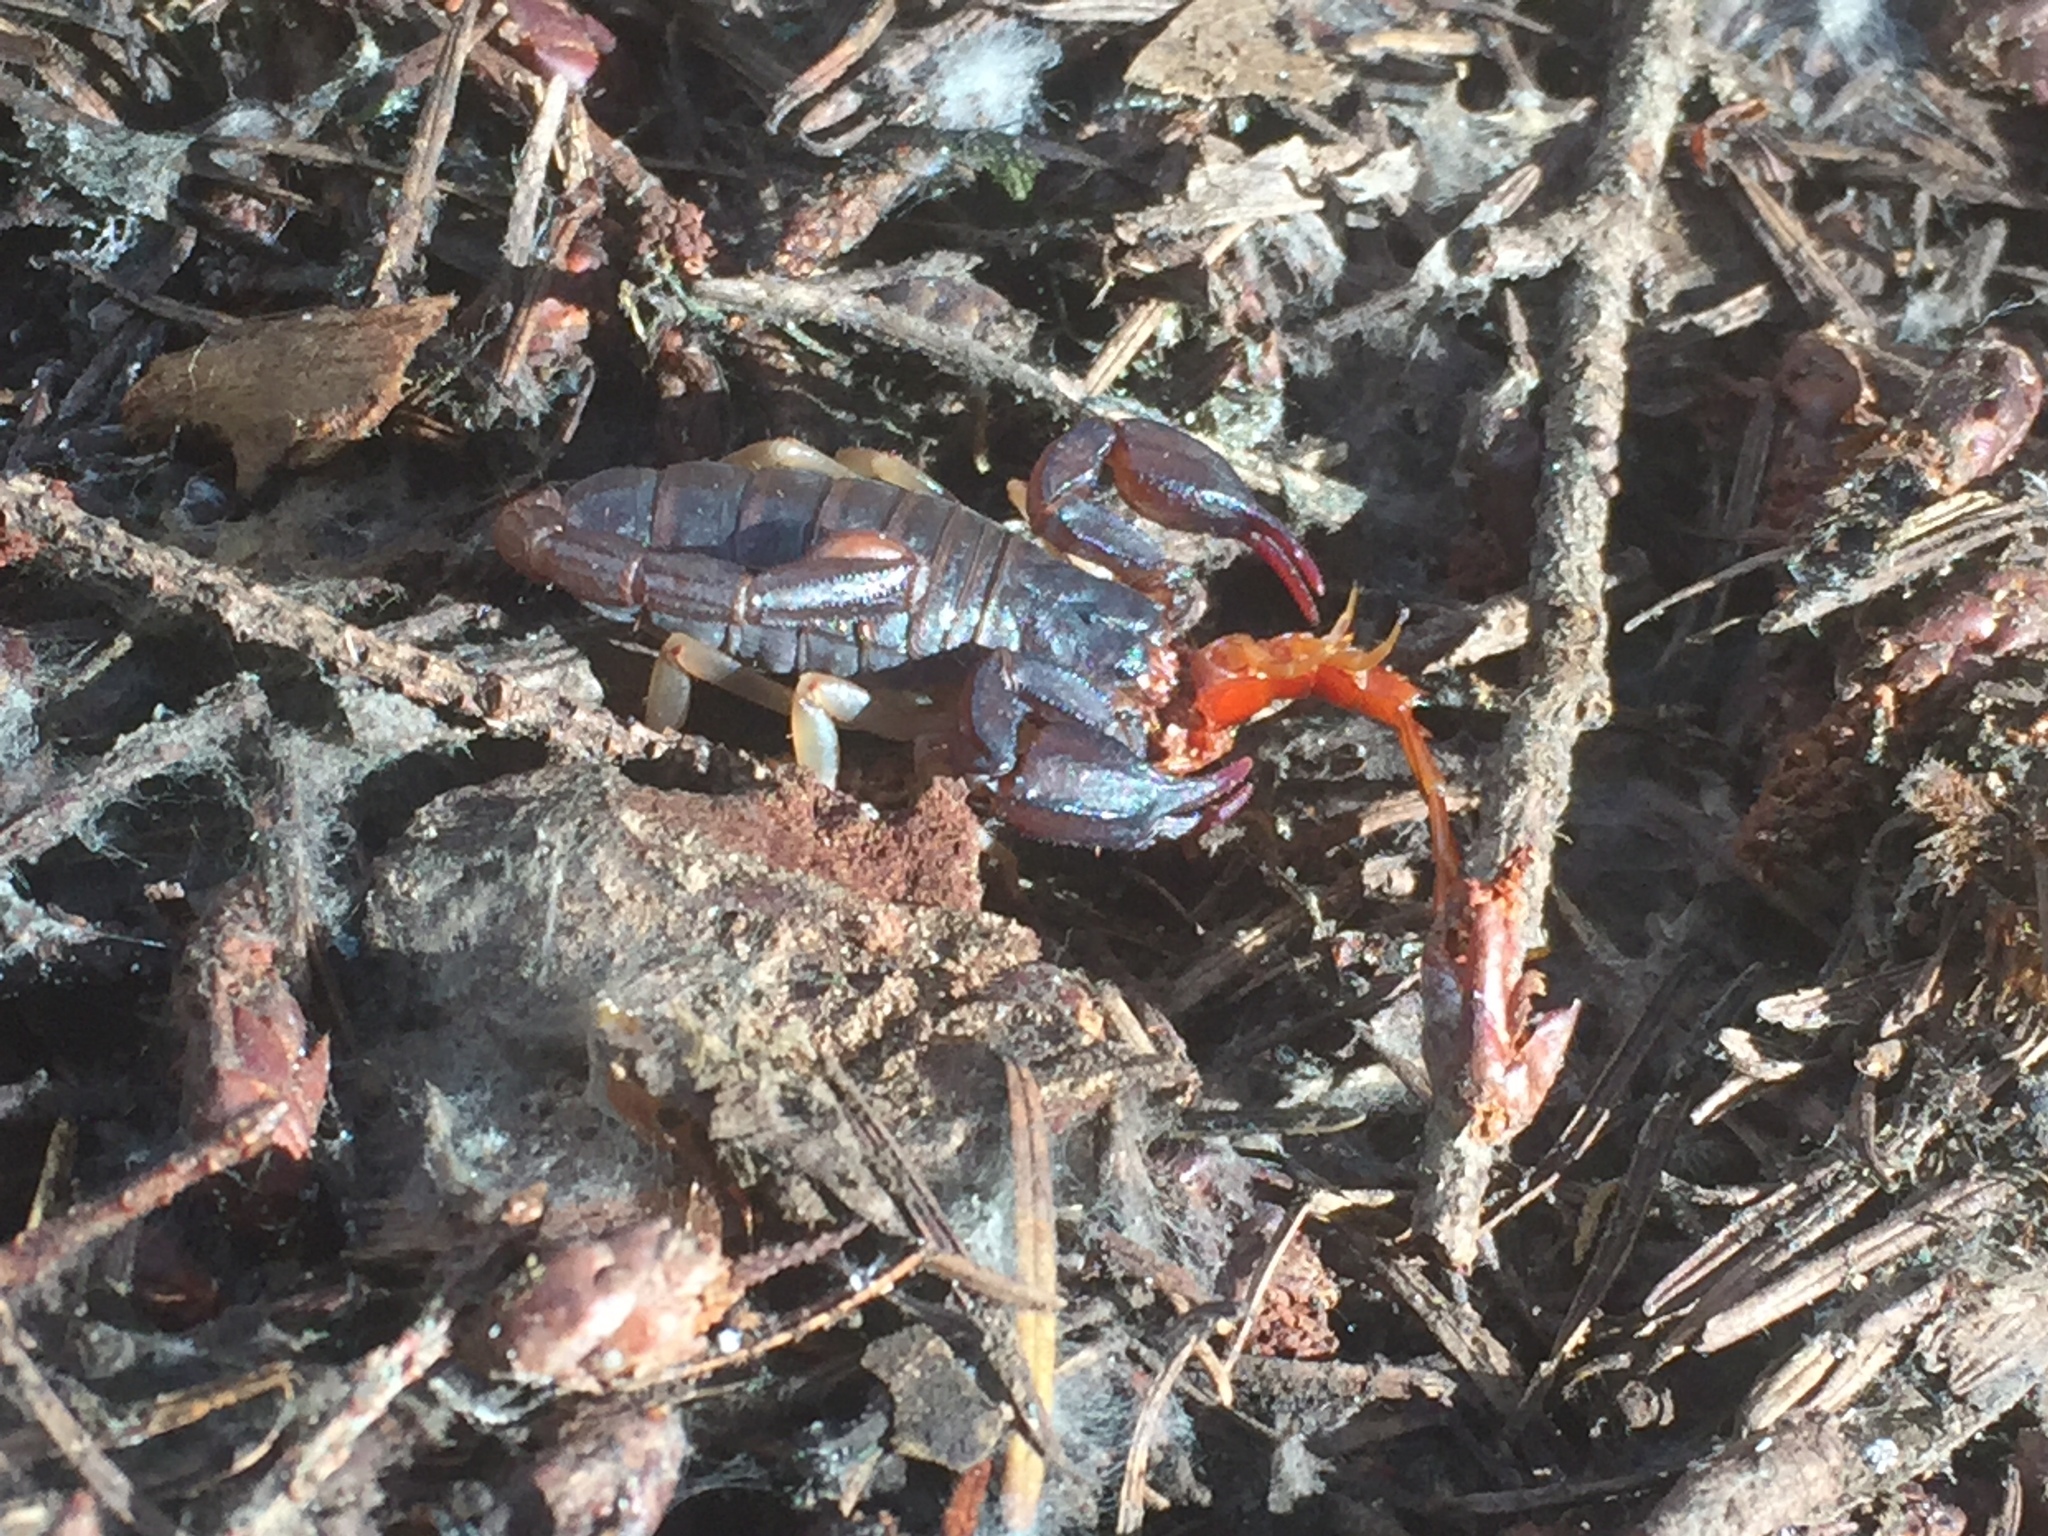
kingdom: Animalia
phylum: Arthropoda
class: Arachnida
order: Scorpiones
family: Chactidae
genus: Uroctonus
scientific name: Uroctonus mordax
